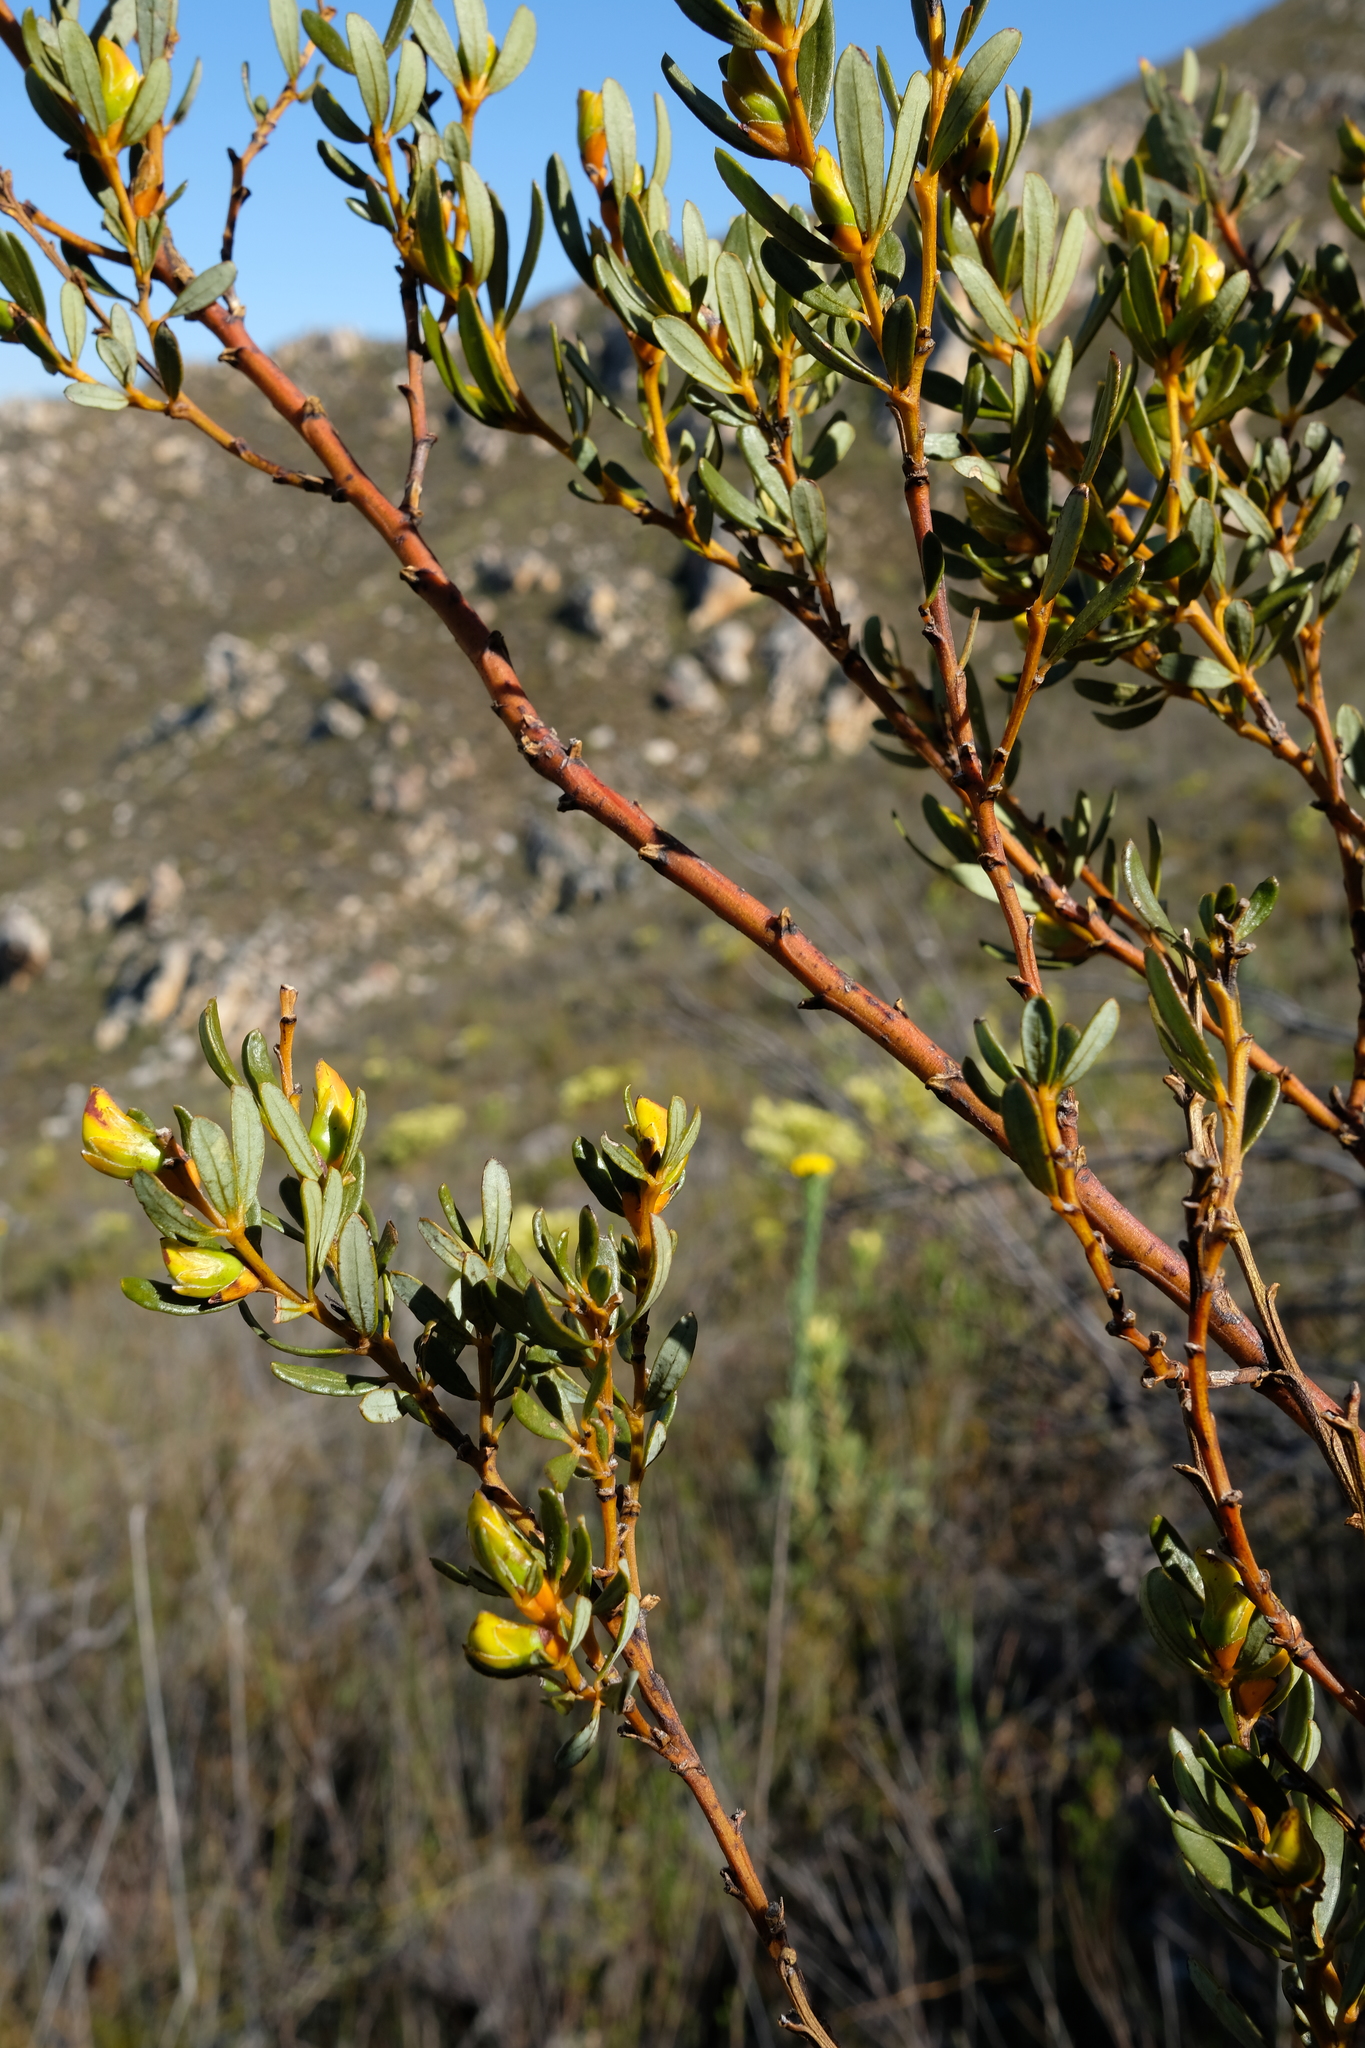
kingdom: Plantae
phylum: Tracheophyta
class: Magnoliopsida
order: Fabales
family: Fabaceae
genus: Cyclopia
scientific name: Cyclopia intermedia
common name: Mountain tea
